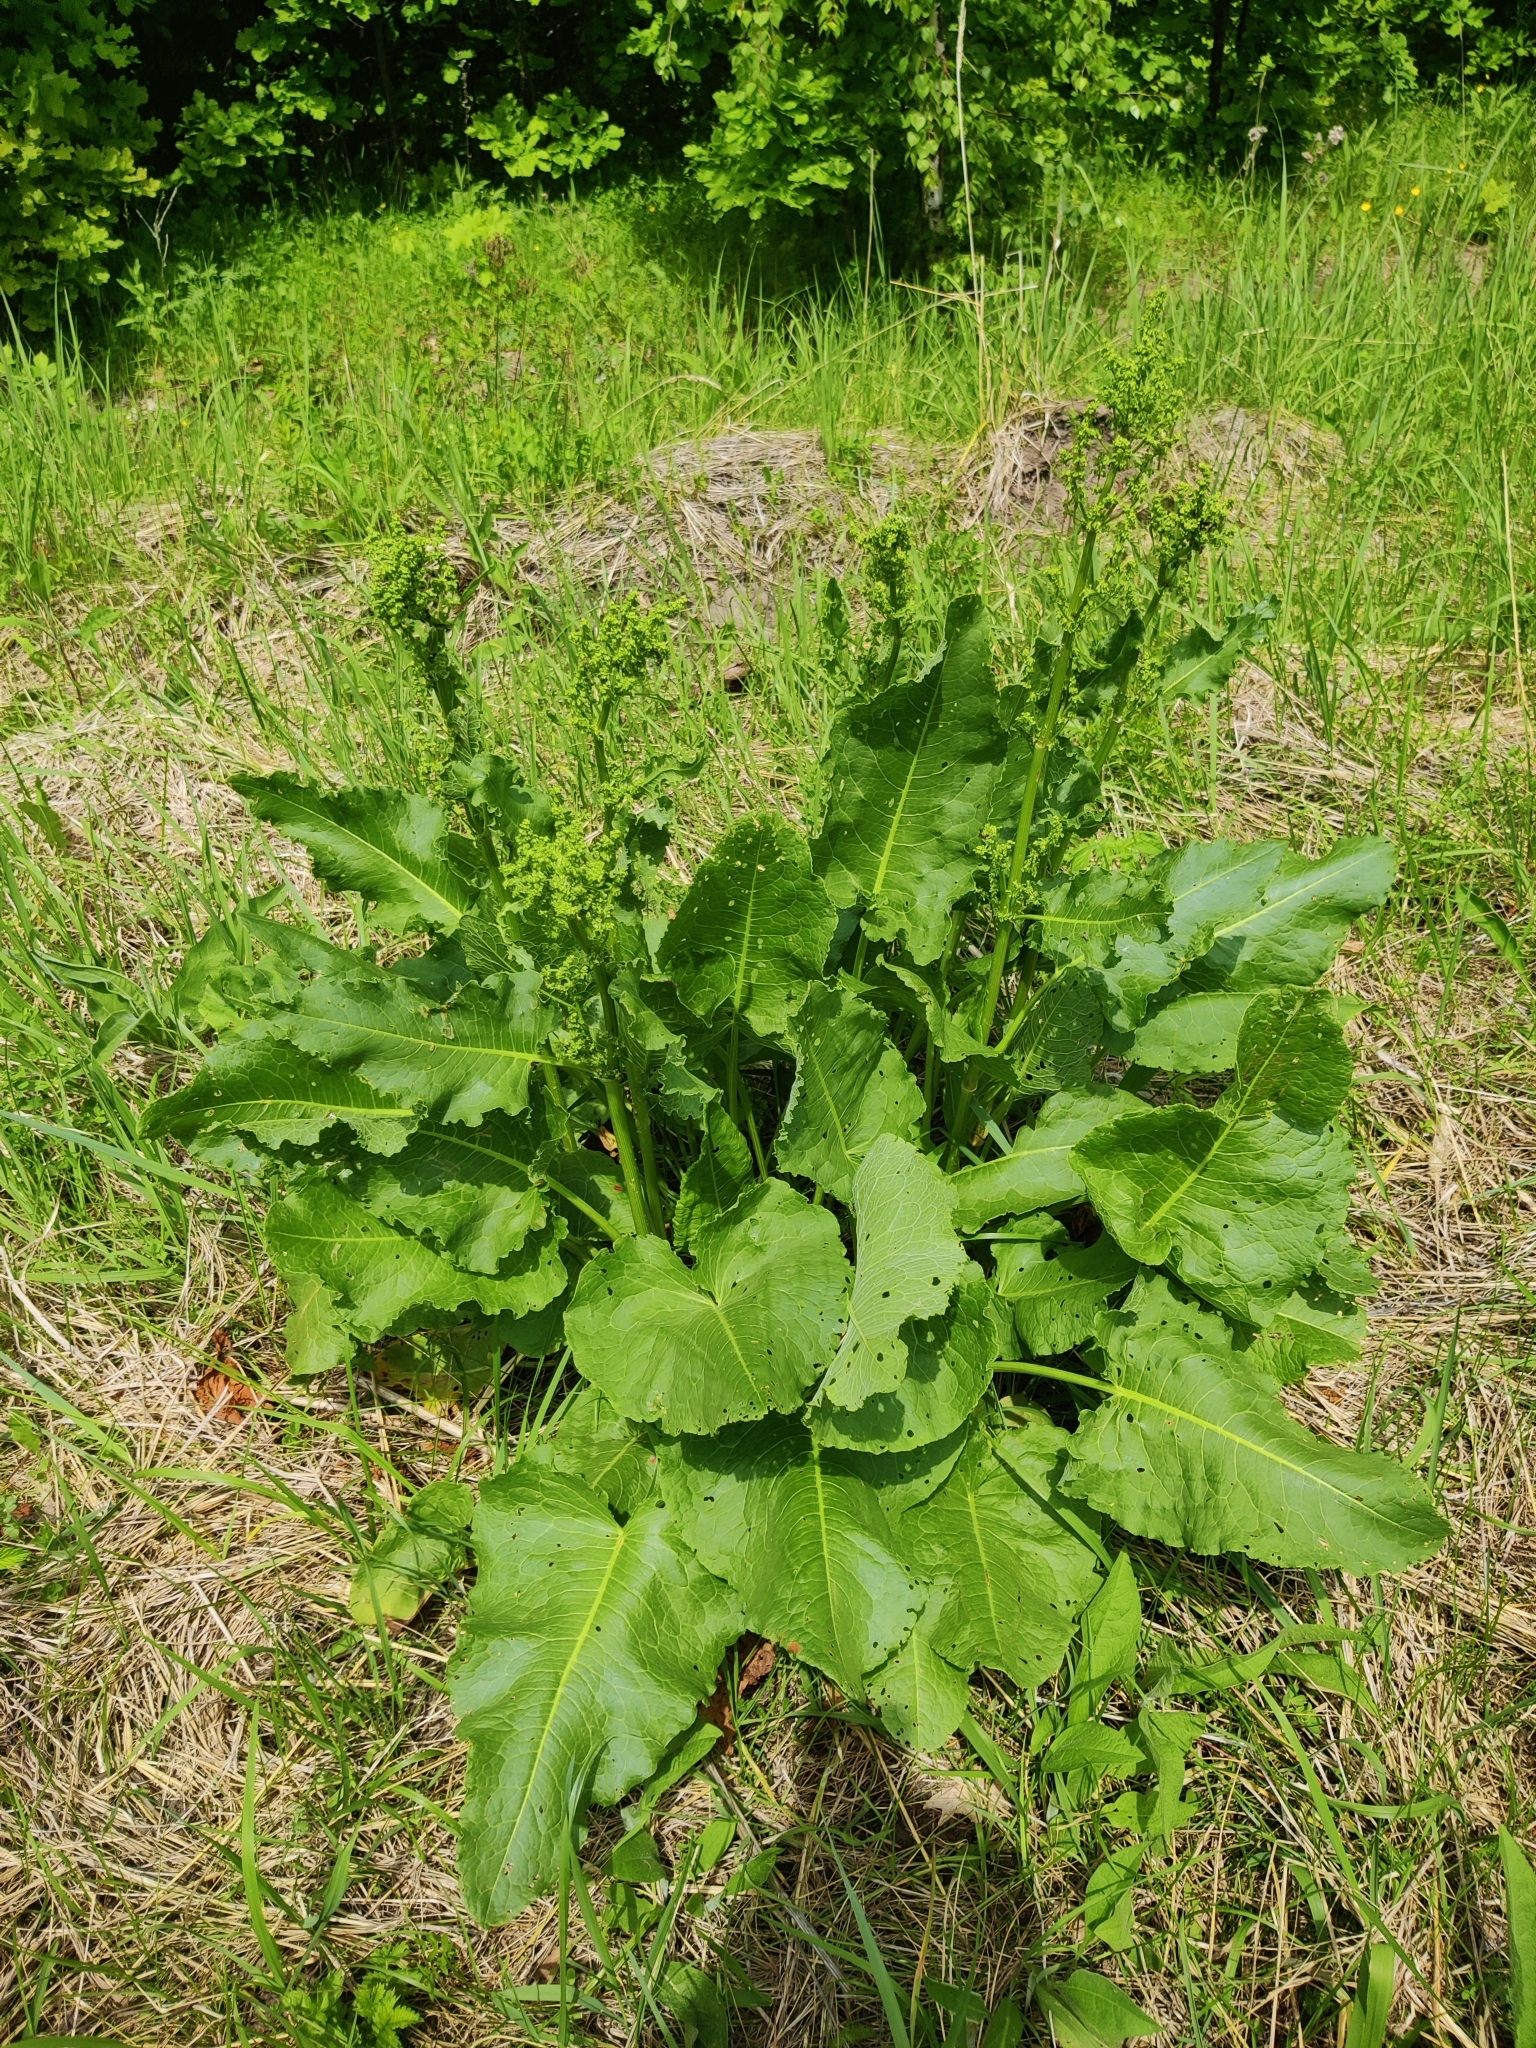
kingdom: Plantae
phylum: Tracheophyta
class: Magnoliopsida
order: Caryophyllales
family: Polygonaceae
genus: Rumex
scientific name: Rumex confertus
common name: Russian dock
